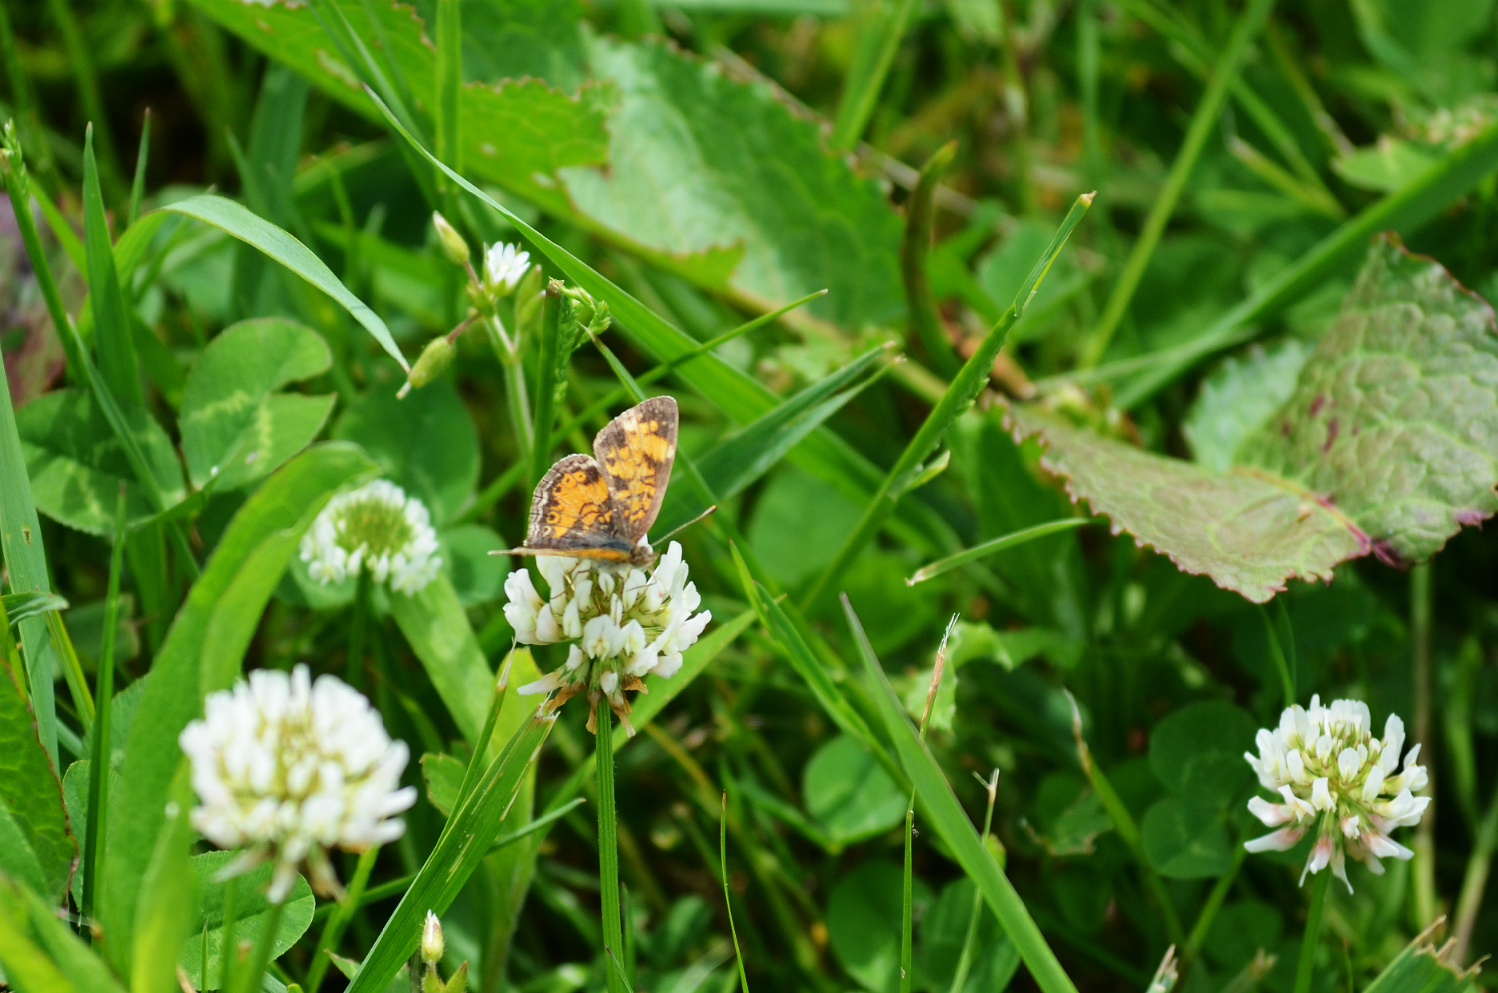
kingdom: Animalia
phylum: Arthropoda
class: Insecta
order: Lepidoptera
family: Nymphalidae
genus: Phyciodes
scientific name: Phyciodes tharos
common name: Pearl crescent
